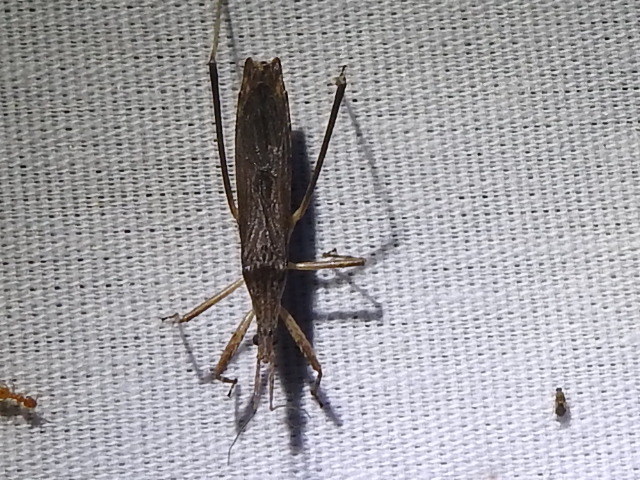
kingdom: Animalia
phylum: Arthropoda
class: Insecta
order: Hemiptera
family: Reduviidae
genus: Pygolampis
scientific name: Pygolampis pectoralis
